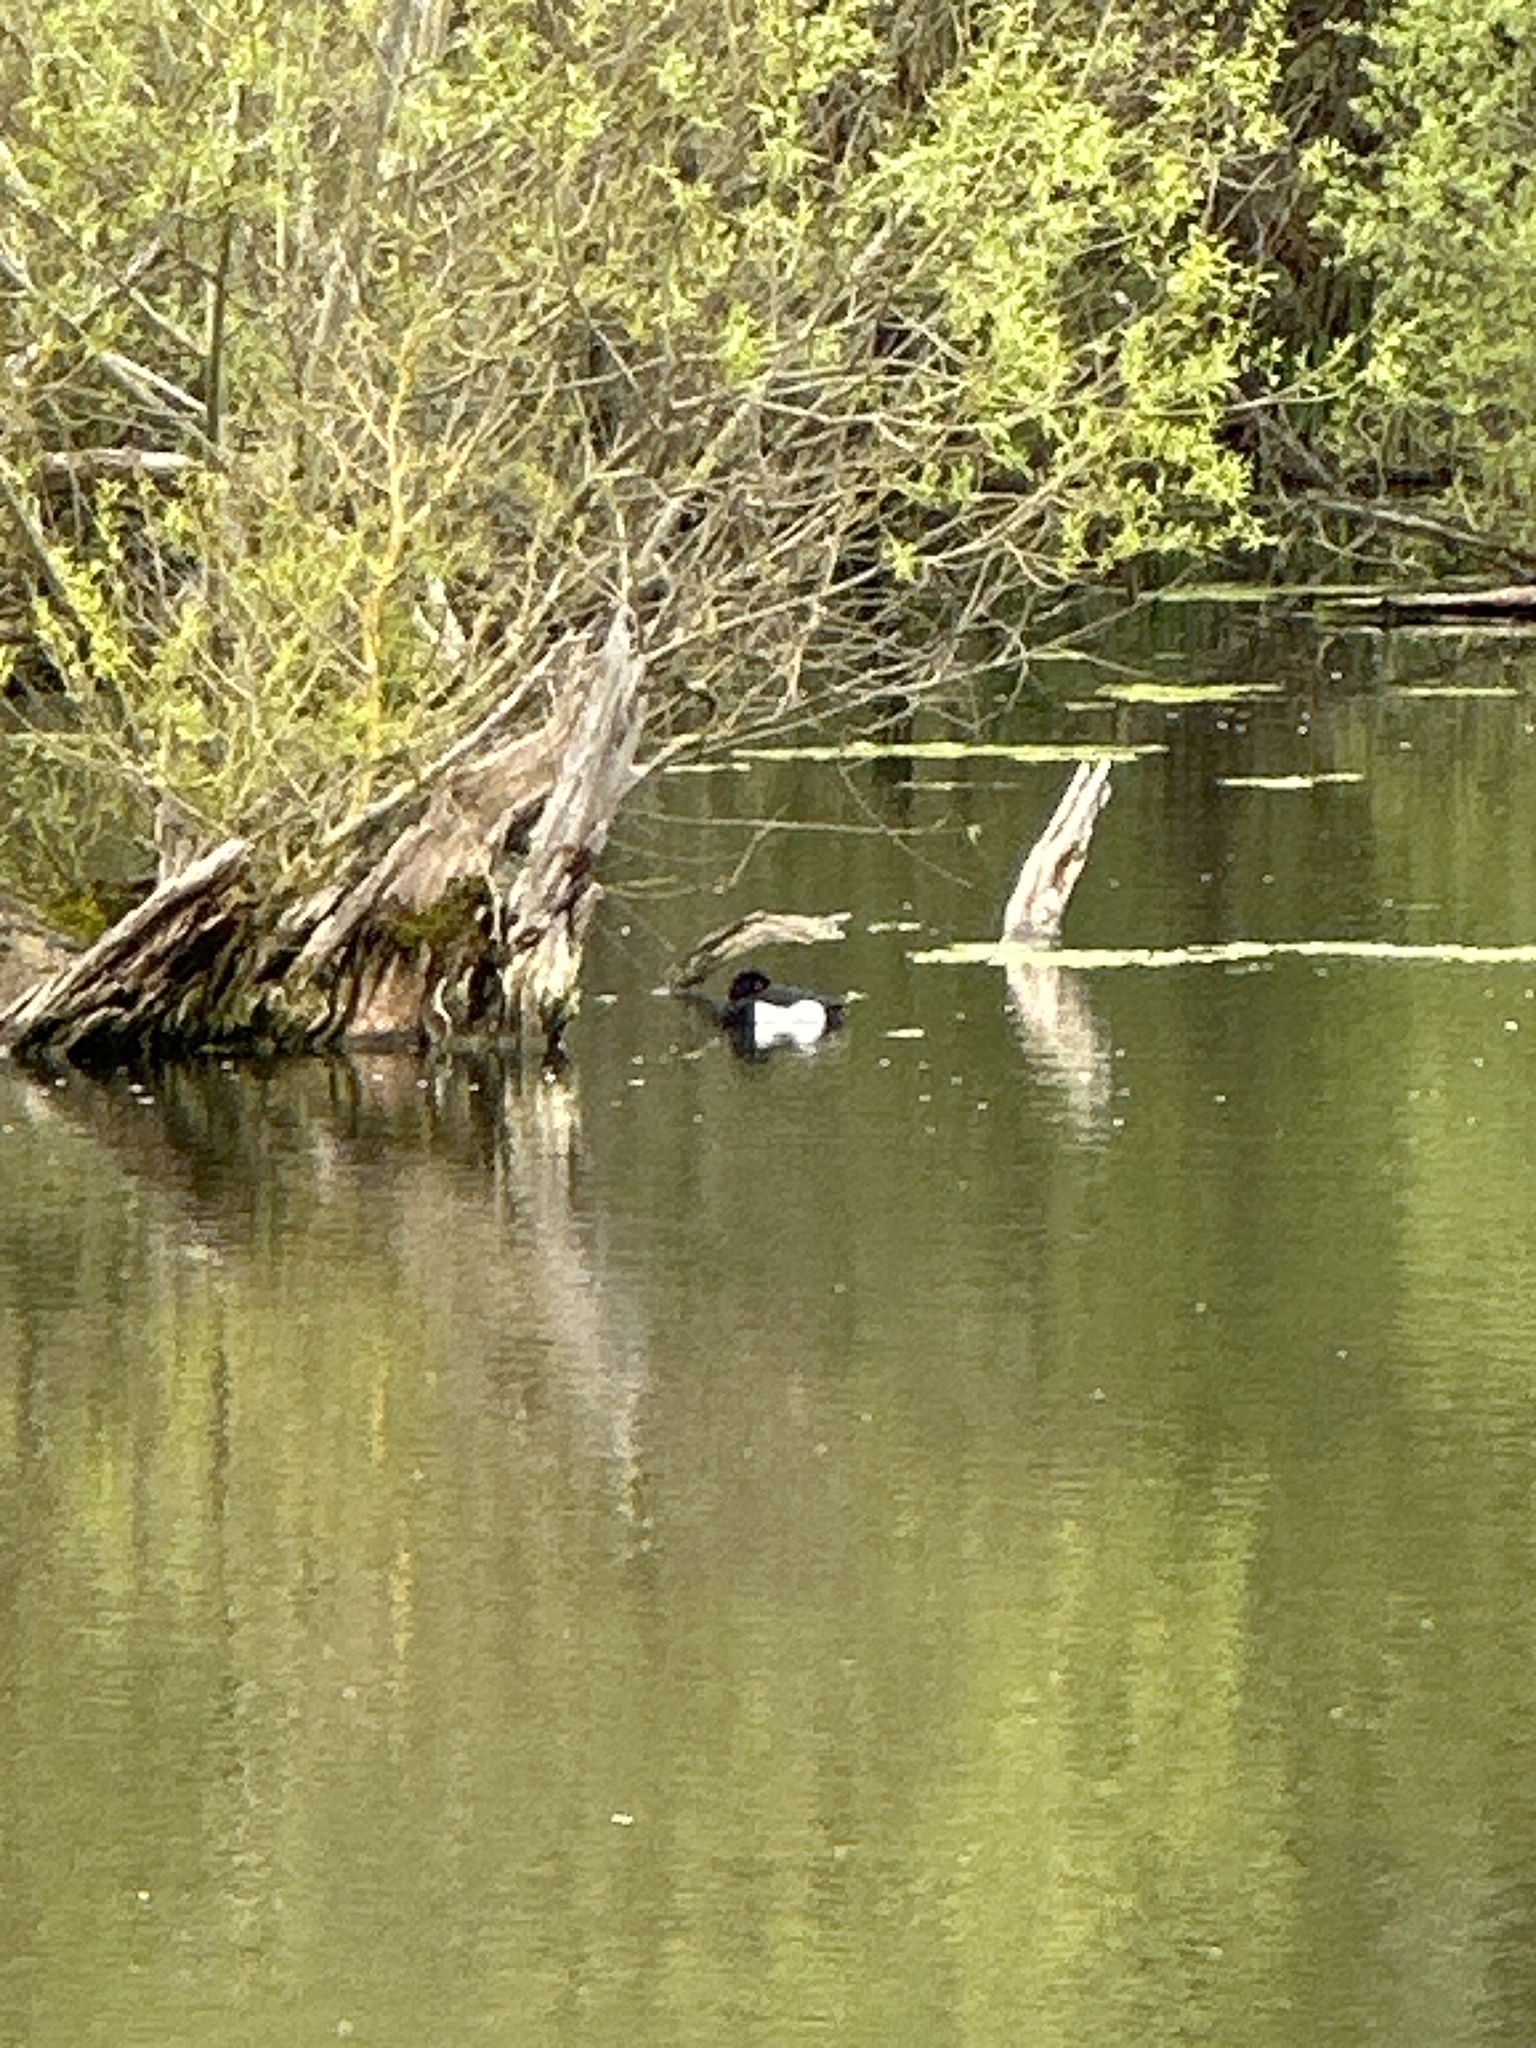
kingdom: Animalia
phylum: Chordata
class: Aves
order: Anseriformes
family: Anatidae
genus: Aythya
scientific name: Aythya fuligula
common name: Tufted duck
